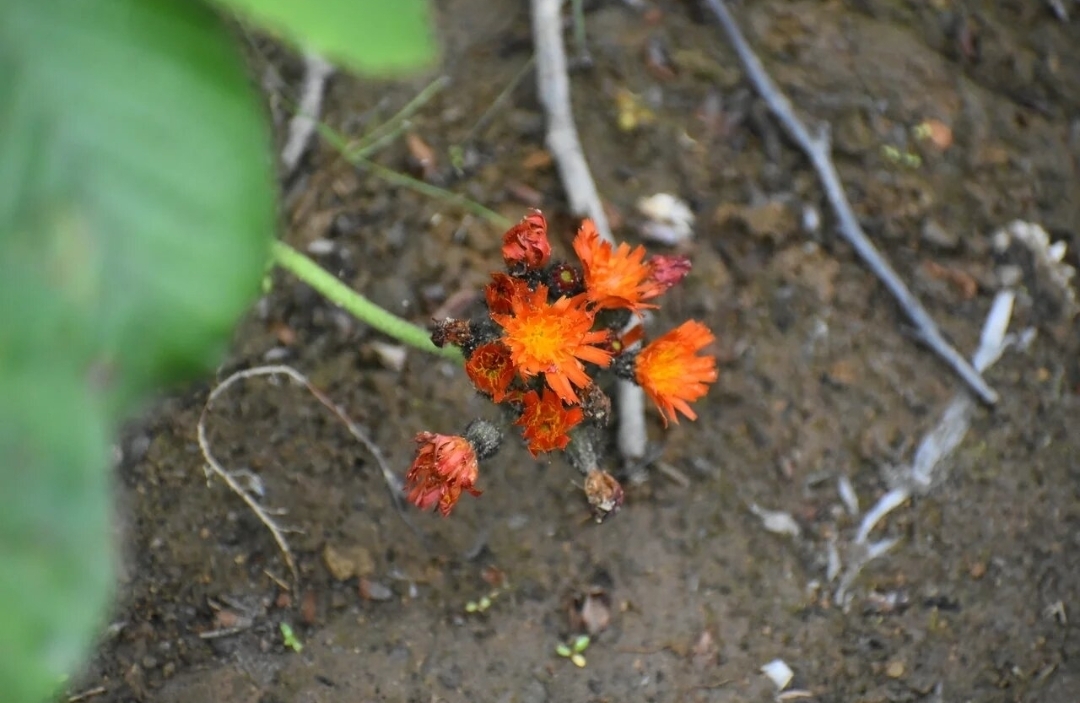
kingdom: Plantae
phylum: Tracheophyta
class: Magnoliopsida
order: Asterales
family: Asteraceae
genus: Pilosella
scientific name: Pilosella aurantiaca
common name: Fox-and-cubs
